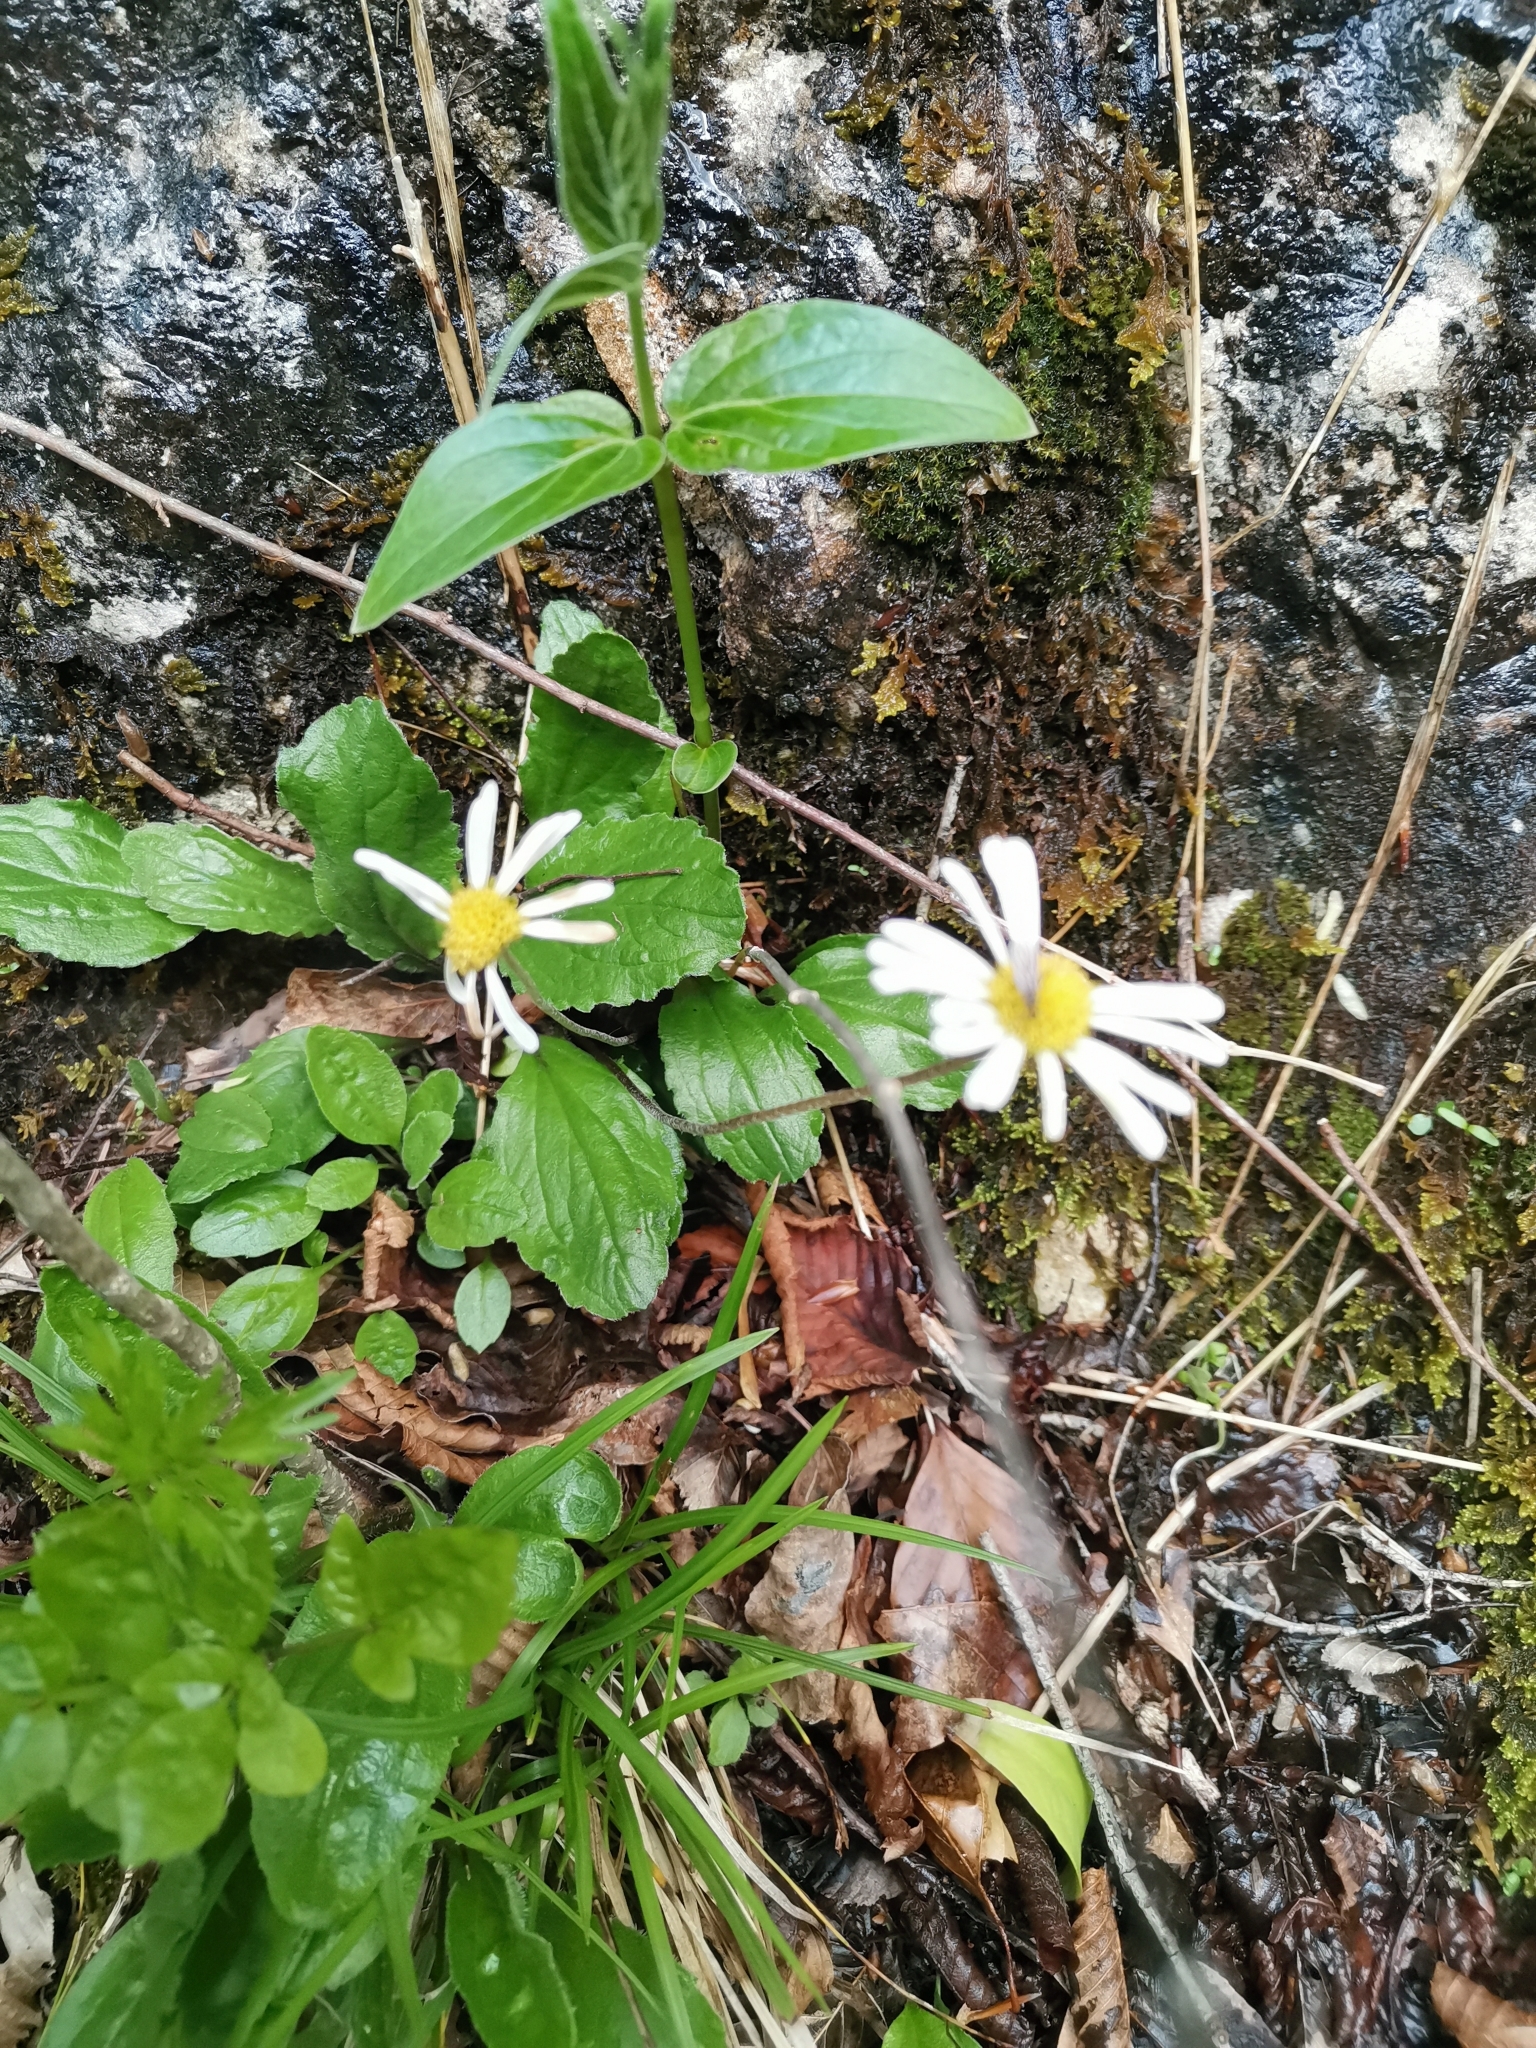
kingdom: Plantae
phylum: Tracheophyta
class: Magnoliopsida
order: Asterales
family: Asteraceae
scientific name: Asteraceae
